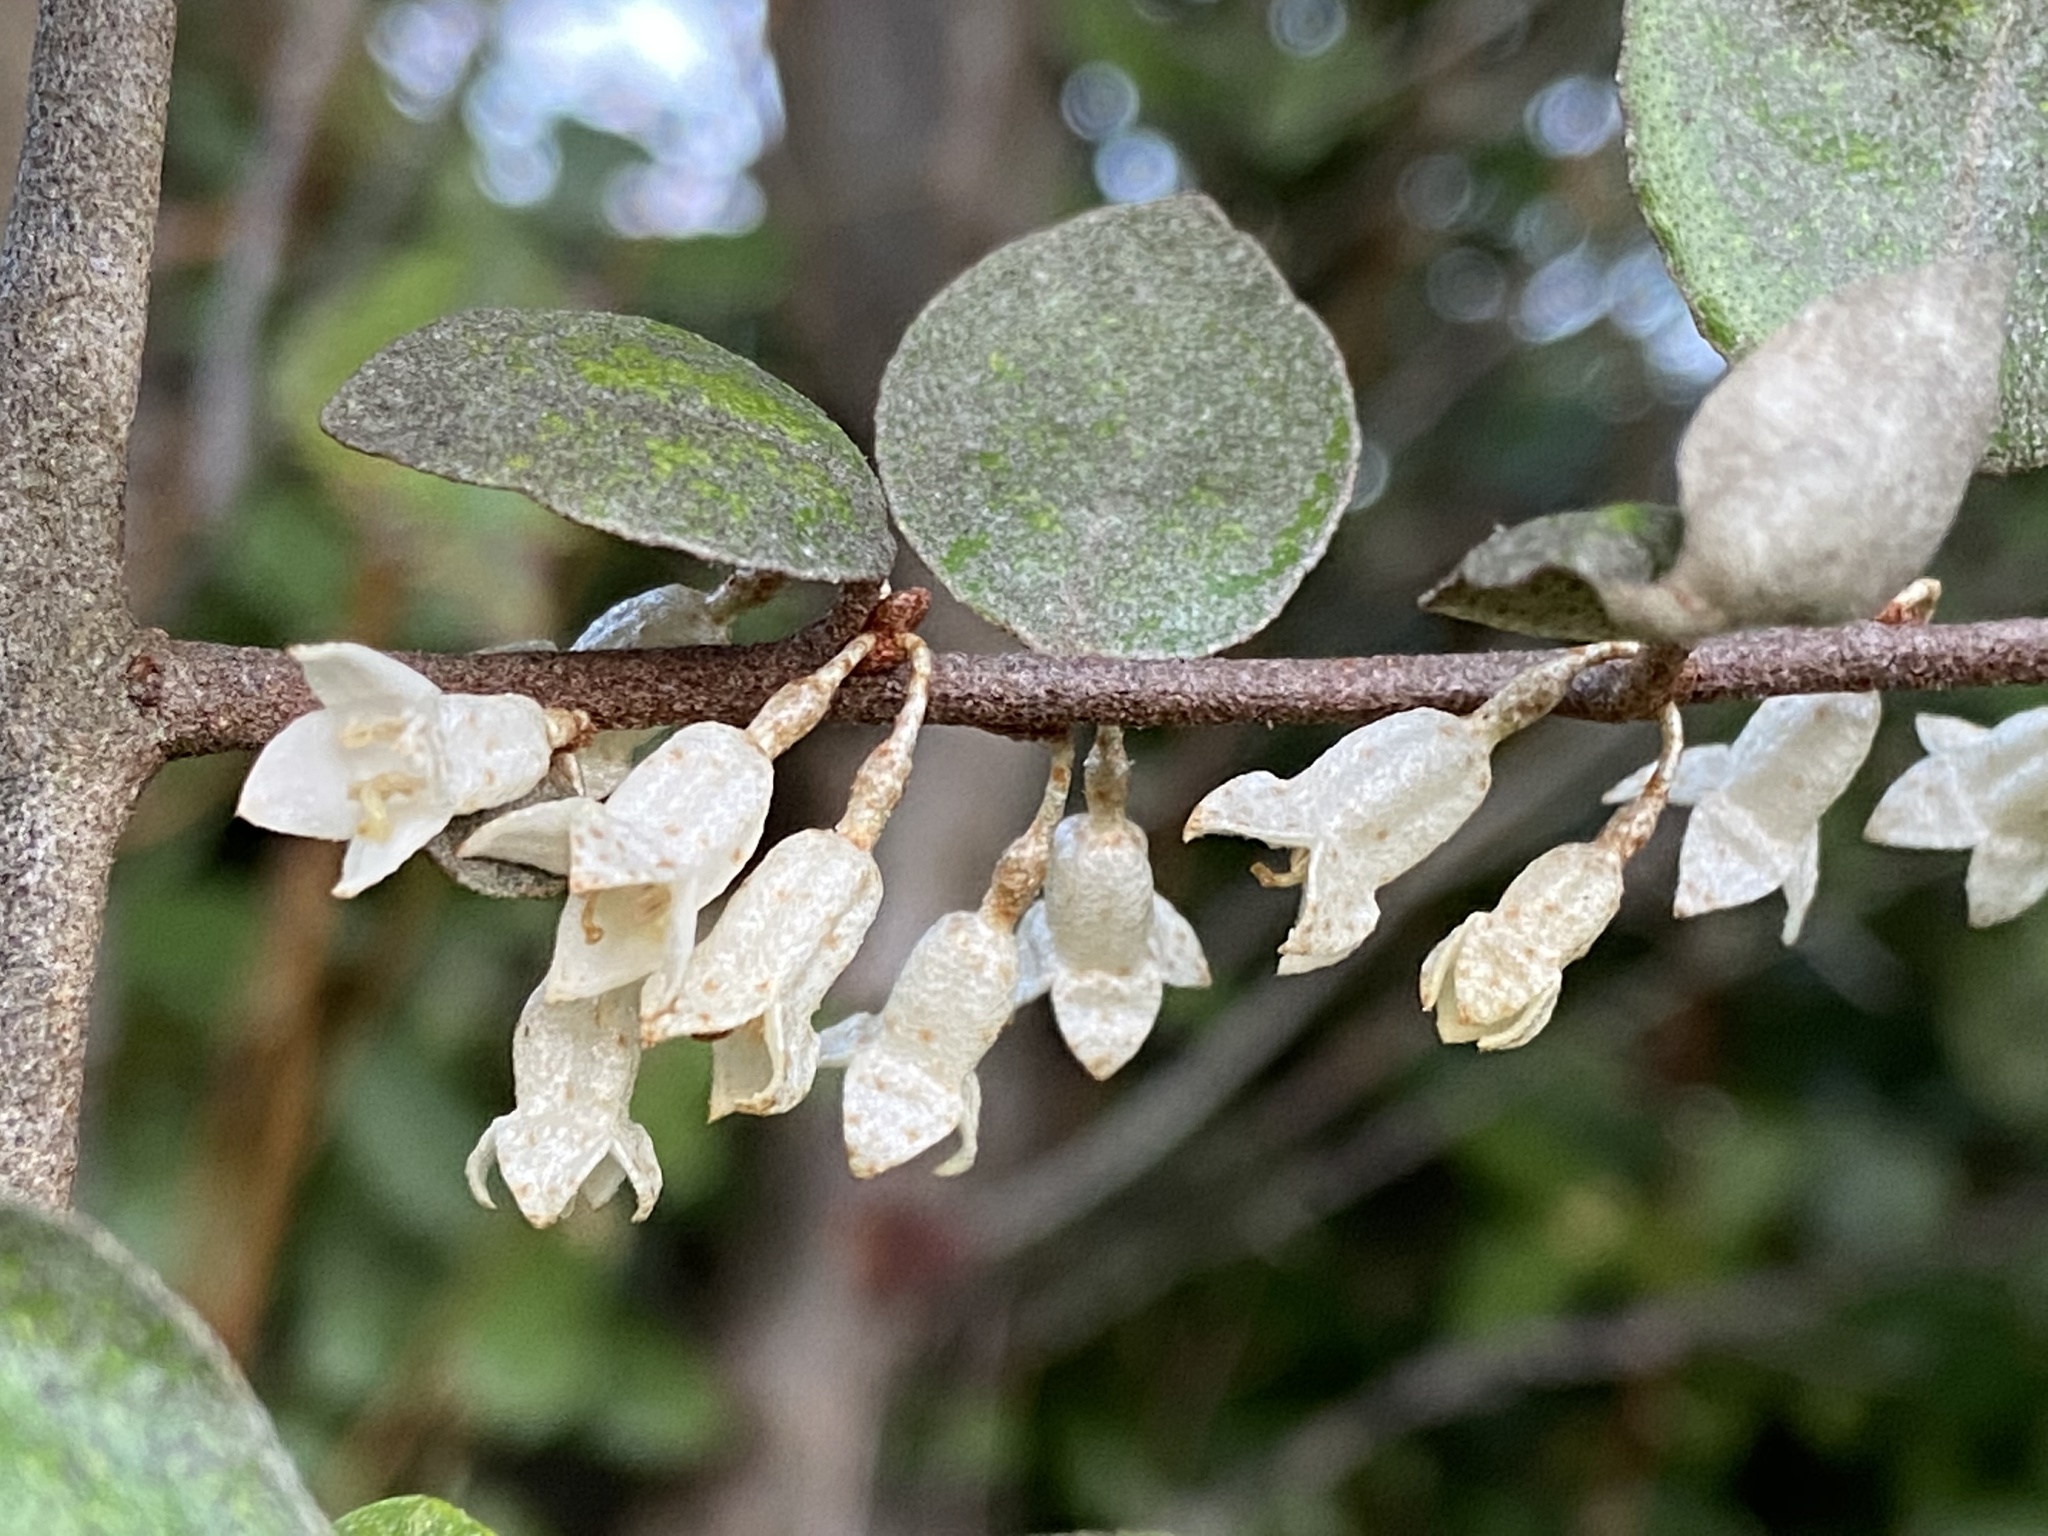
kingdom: Plantae
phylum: Tracheophyta
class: Magnoliopsida
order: Rosales
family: Elaeagnaceae
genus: Elaeagnus
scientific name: Elaeagnus pungens
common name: Spiny oleaster
